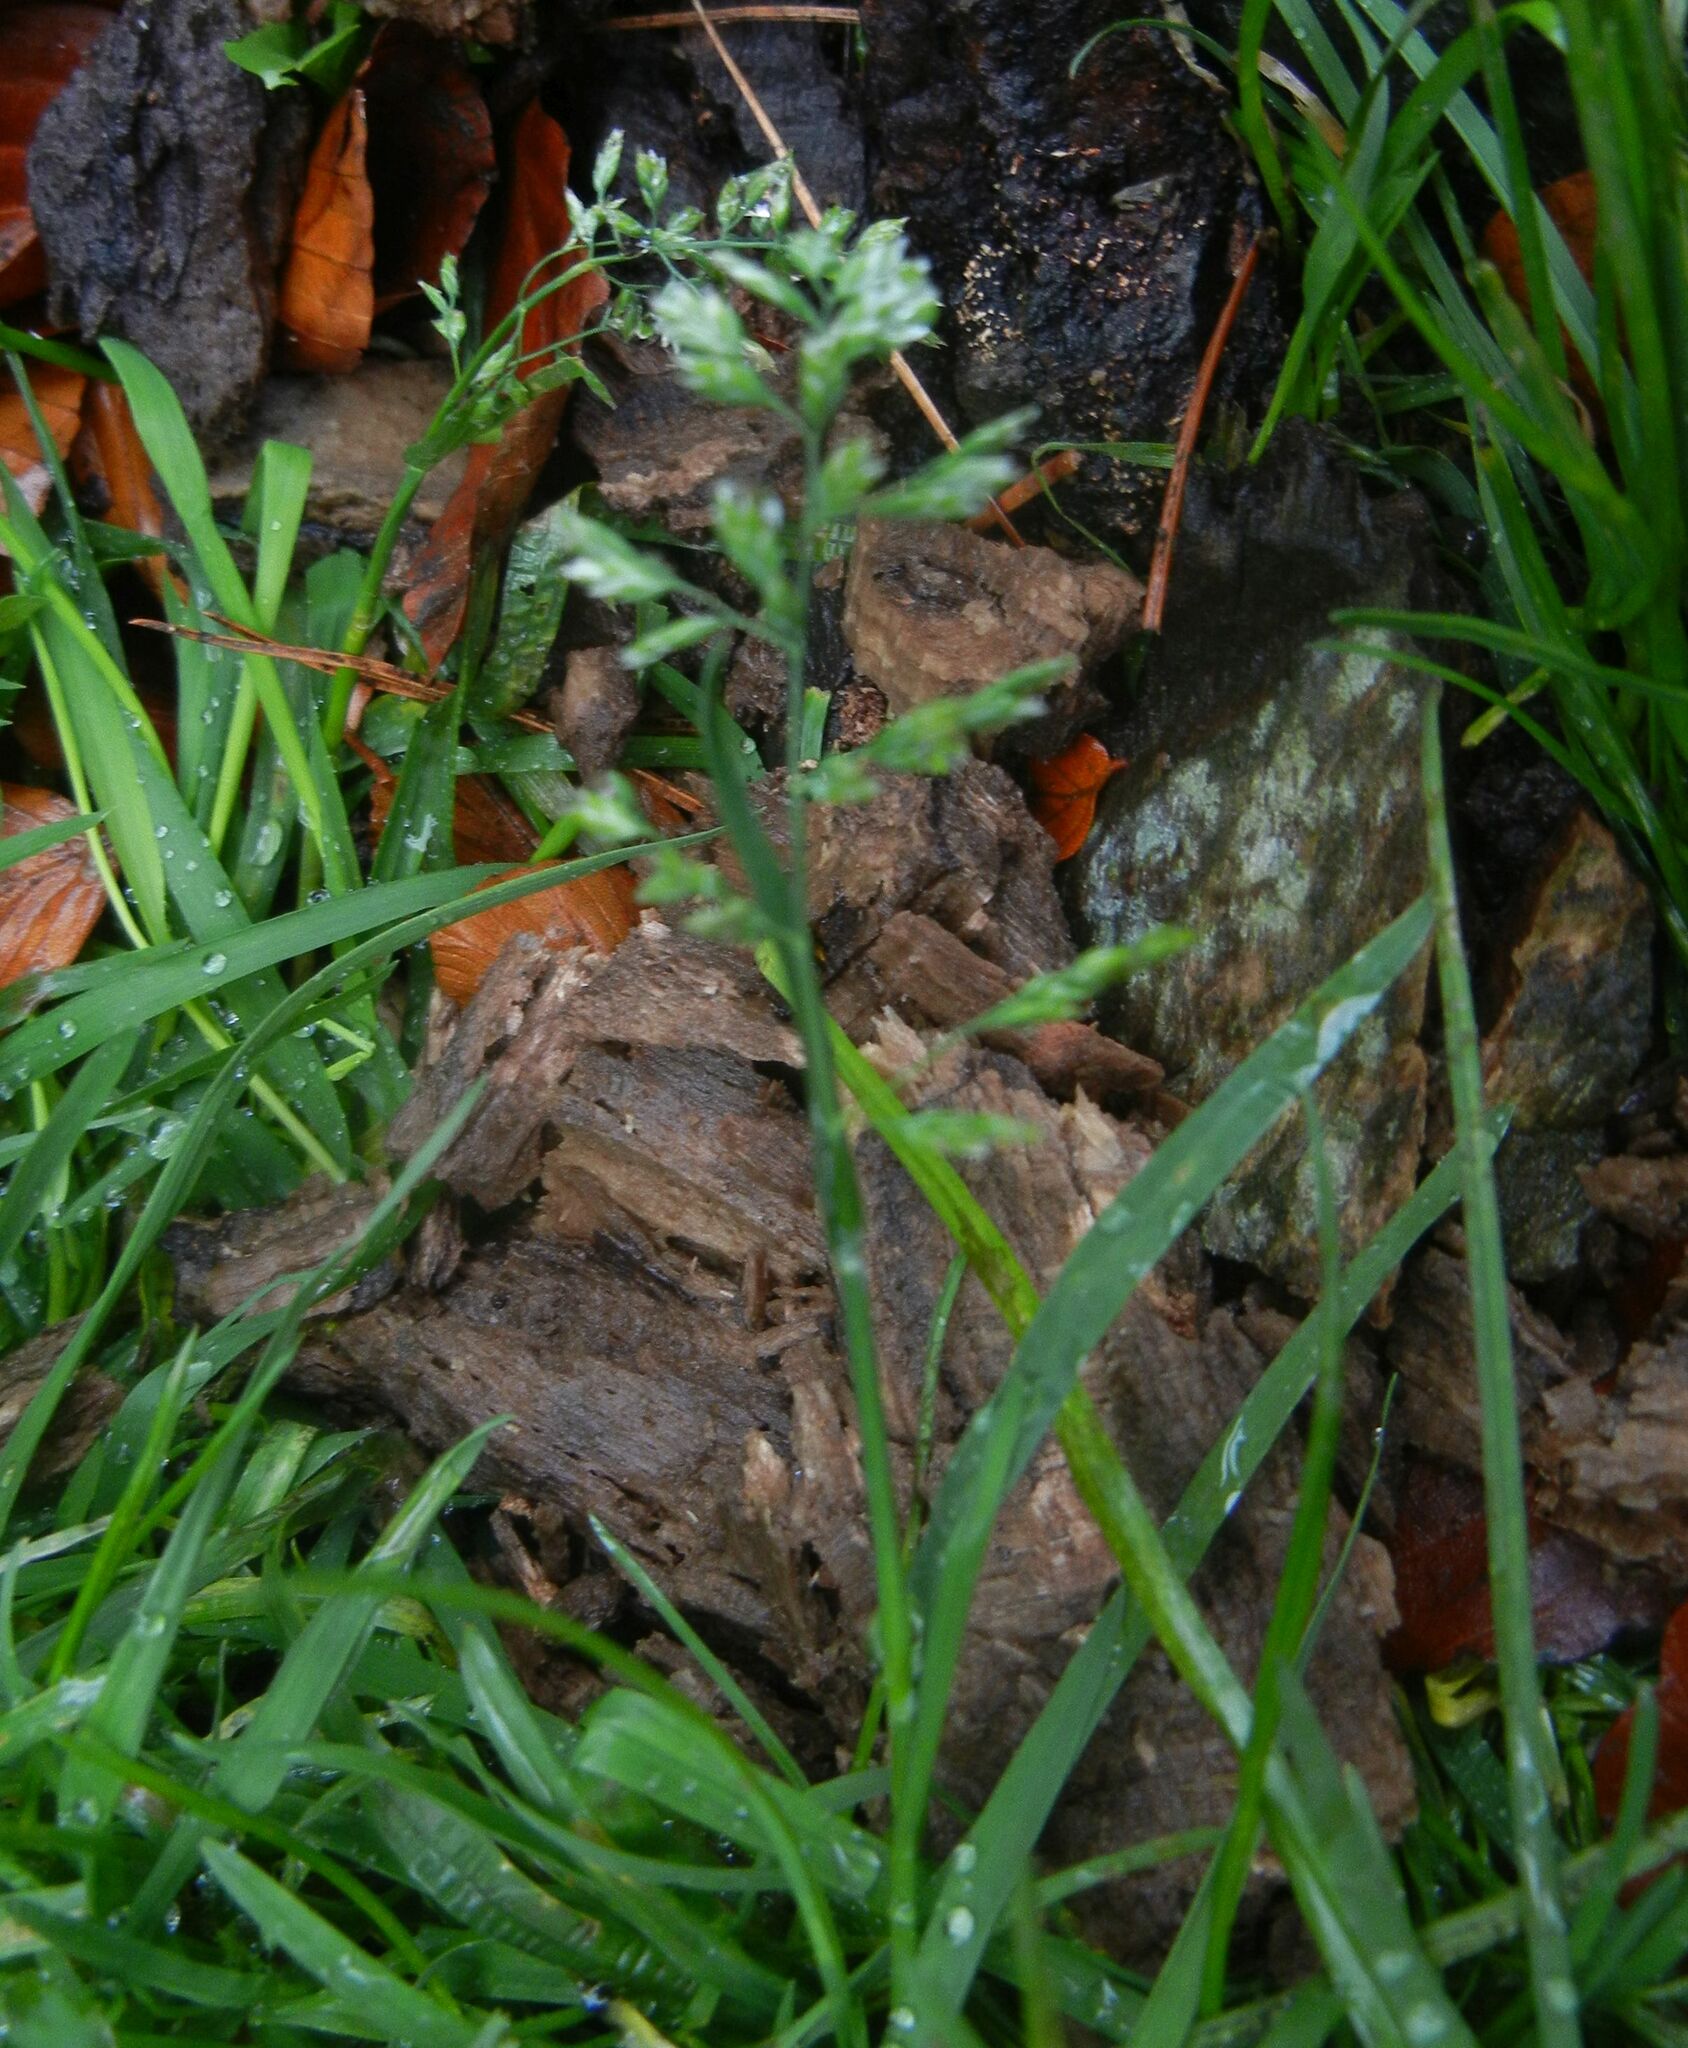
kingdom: Plantae
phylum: Tracheophyta
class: Liliopsida
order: Poales
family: Poaceae
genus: Poa
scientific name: Poa annua
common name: Annual bluegrass
